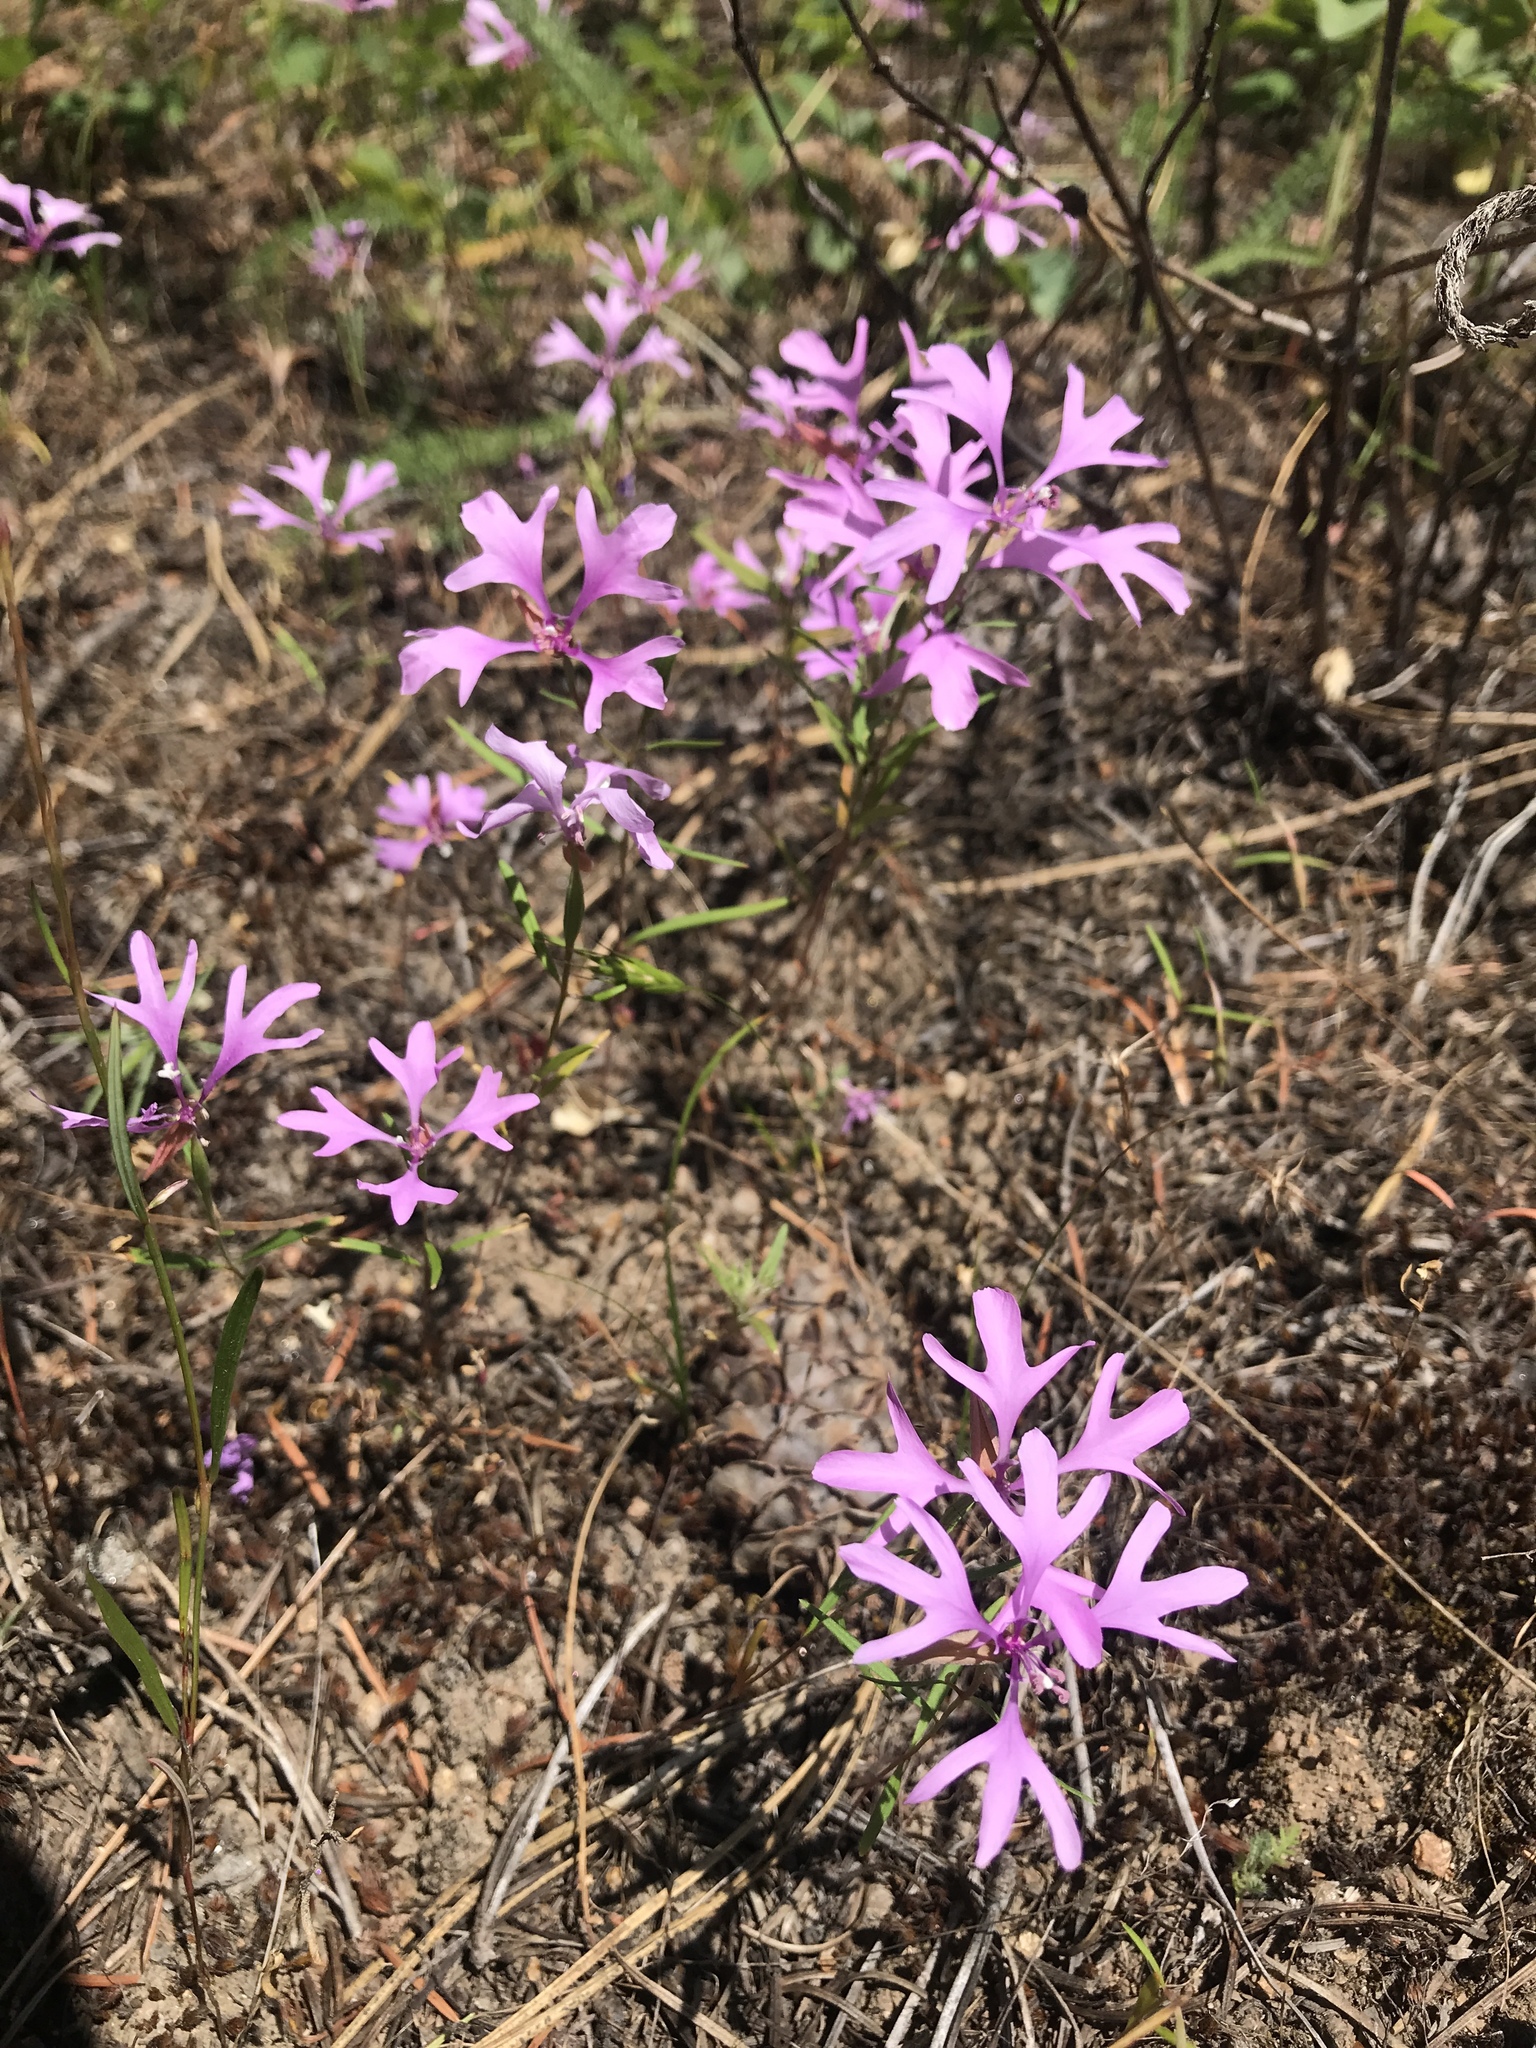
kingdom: Plantae
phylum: Tracheophyta
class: Magnoliopsida
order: Myrtales
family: Onagraceae
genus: Clarkia
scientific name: Clarkia pulchella
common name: Deer horn
